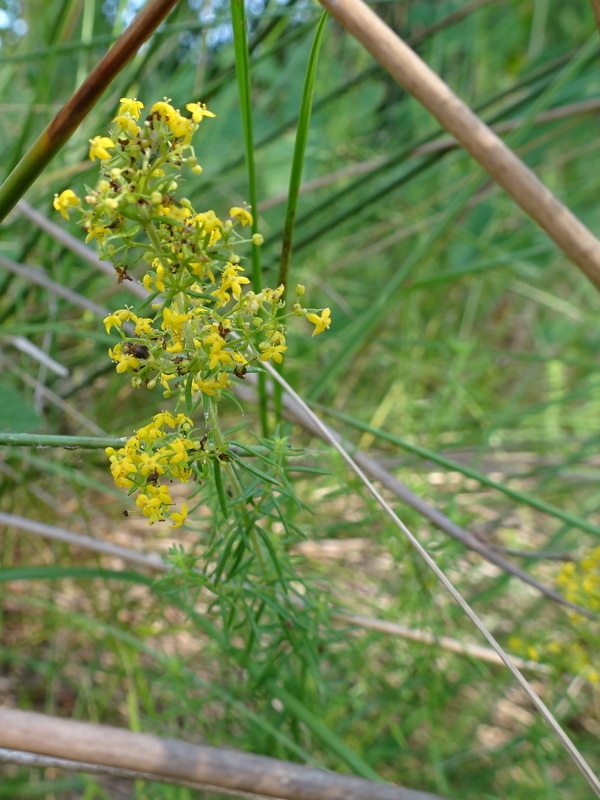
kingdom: Plantae
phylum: Tracheophyta
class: Magnoliopsida
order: Gentianales
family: Rubiaceae
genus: Galium
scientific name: Galium verum
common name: Lady's bedstraw
